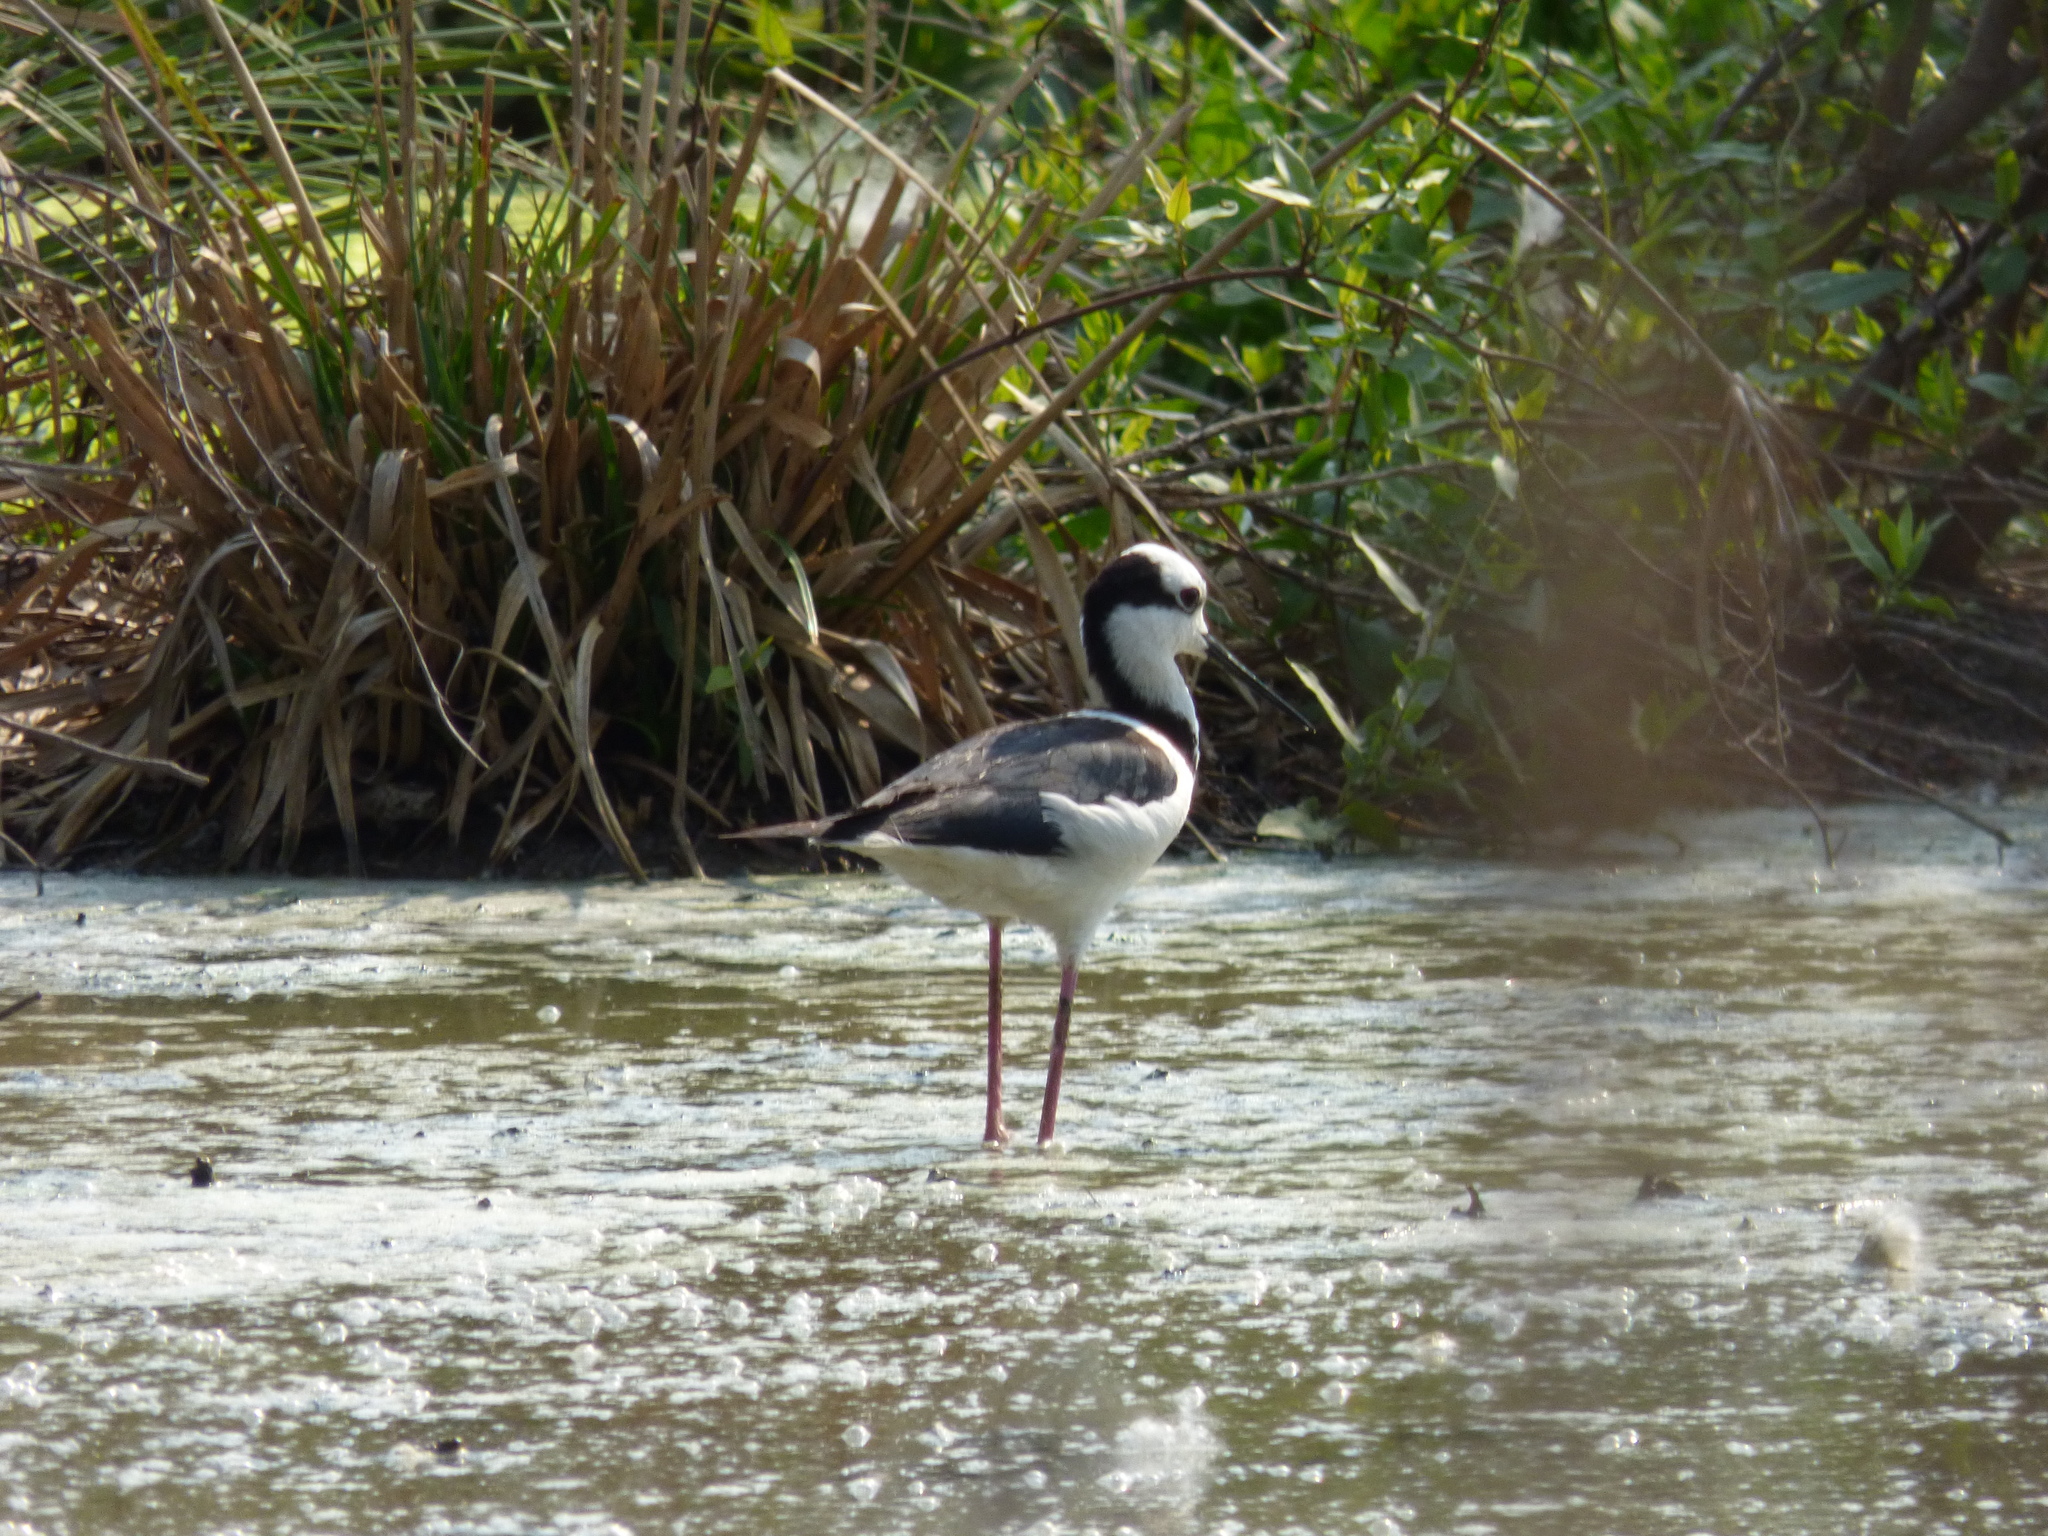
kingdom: Animalia
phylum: Chordata
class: Aves
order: Charadriiformes
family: Recurvirostridae
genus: Himantopus
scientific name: Himantopus mexicanus
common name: Black-necked stilt
